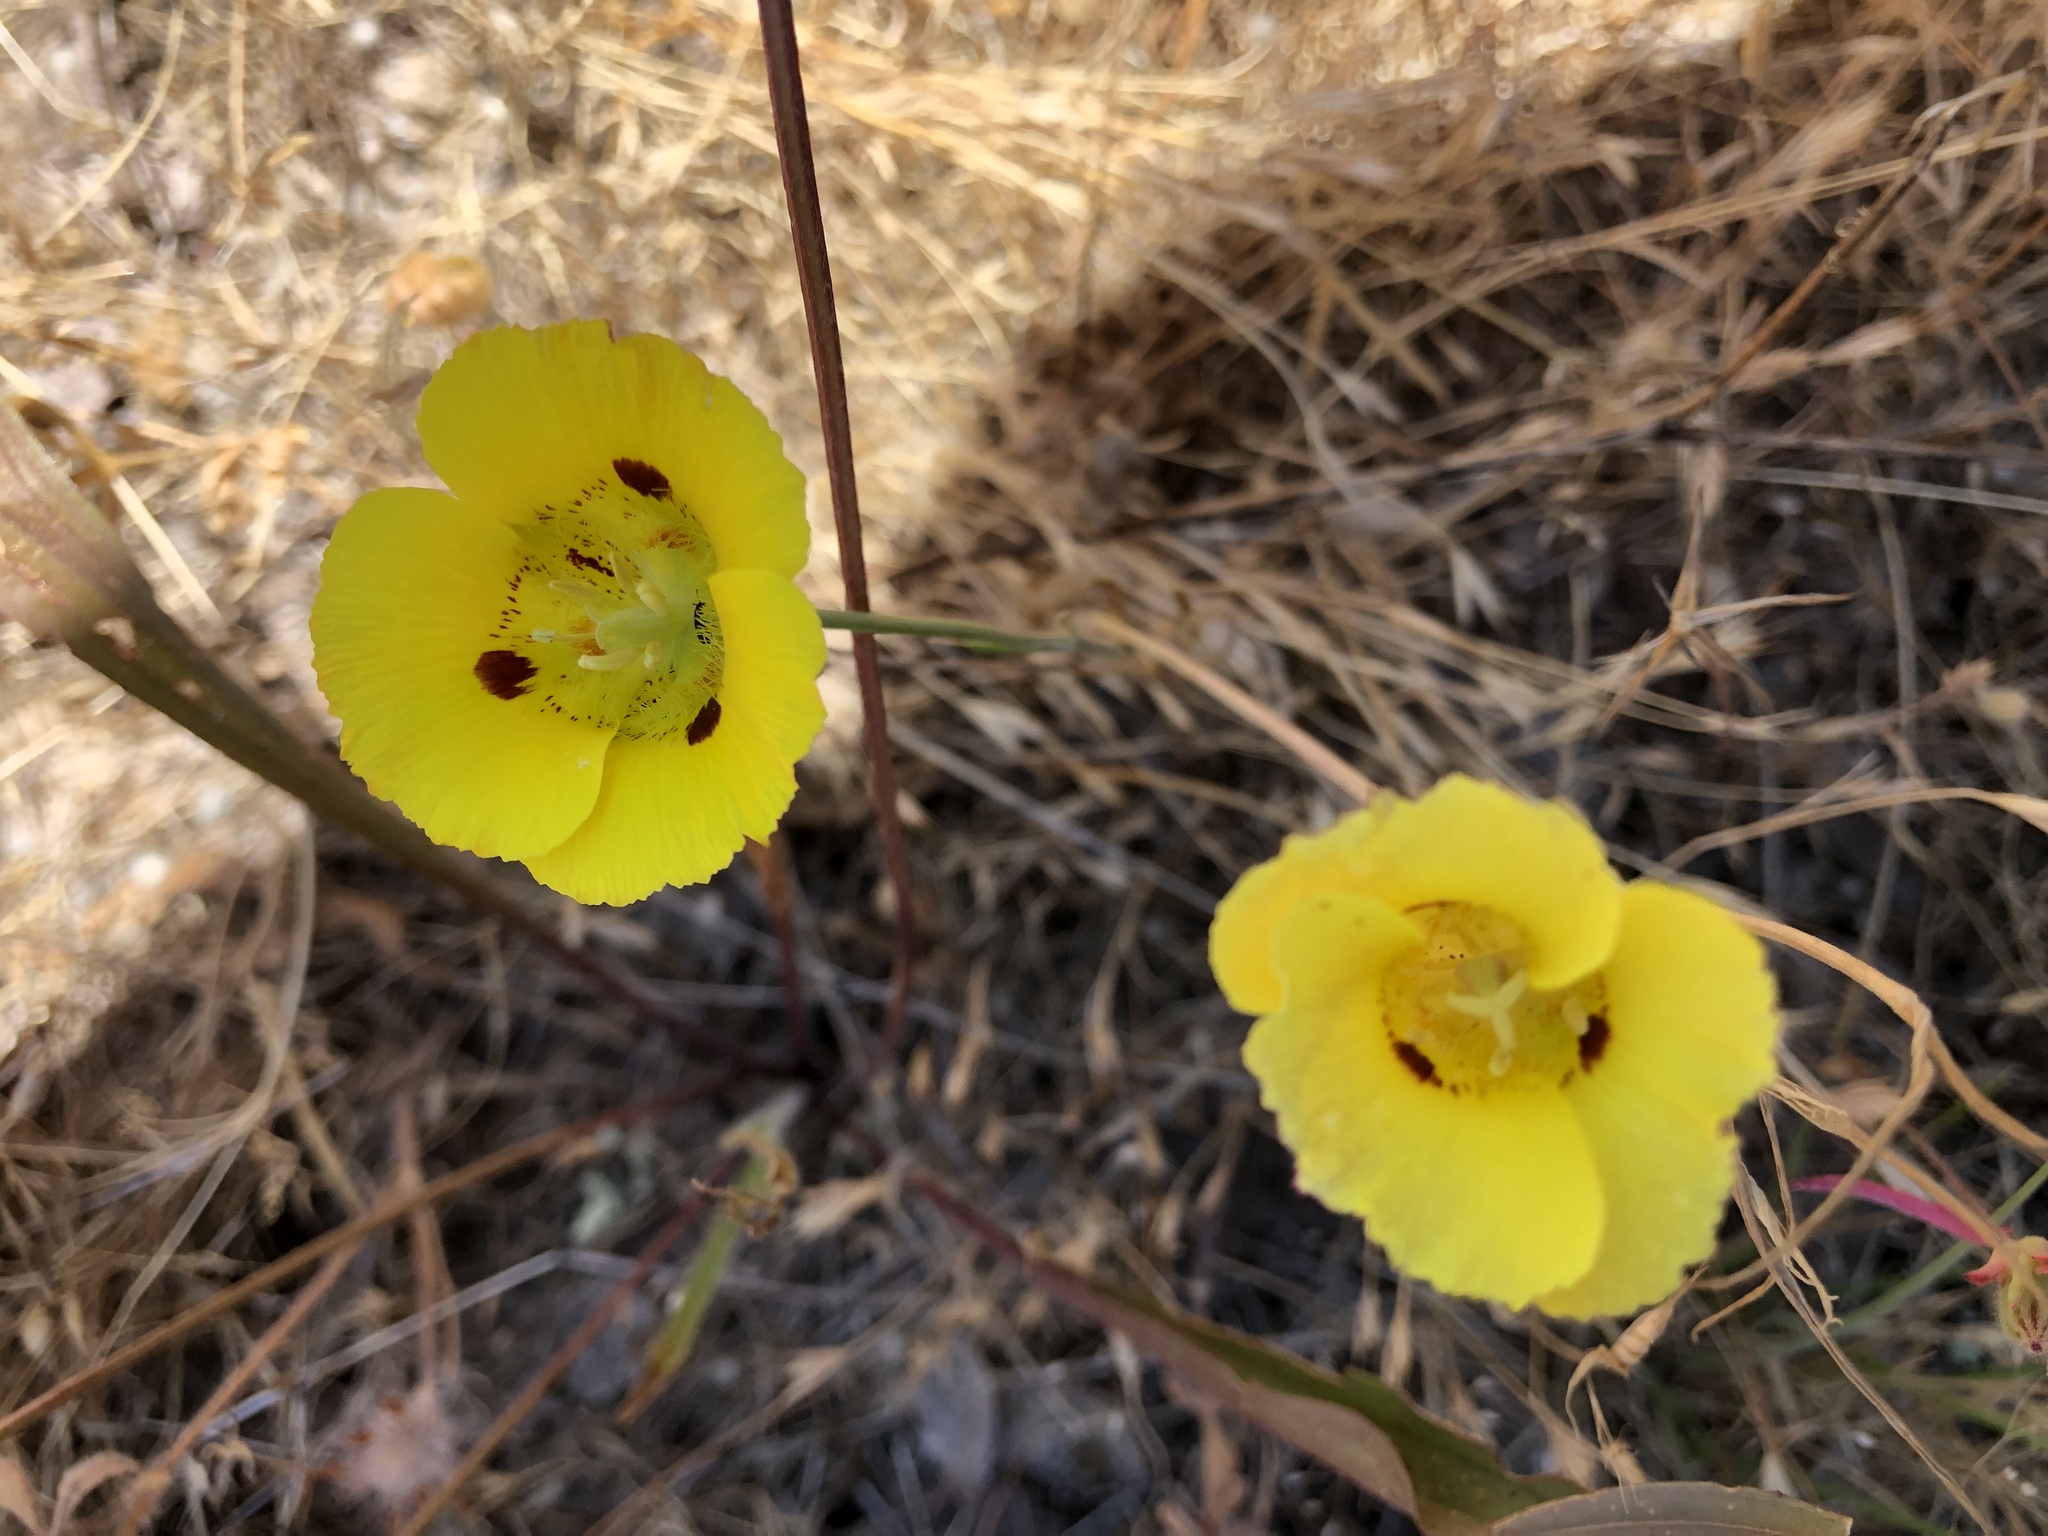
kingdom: Plantae
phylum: Tracheophyta
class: Liliopsida
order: Liliales
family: Liliaceae
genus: Calochortus
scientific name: Calochortus luteus
